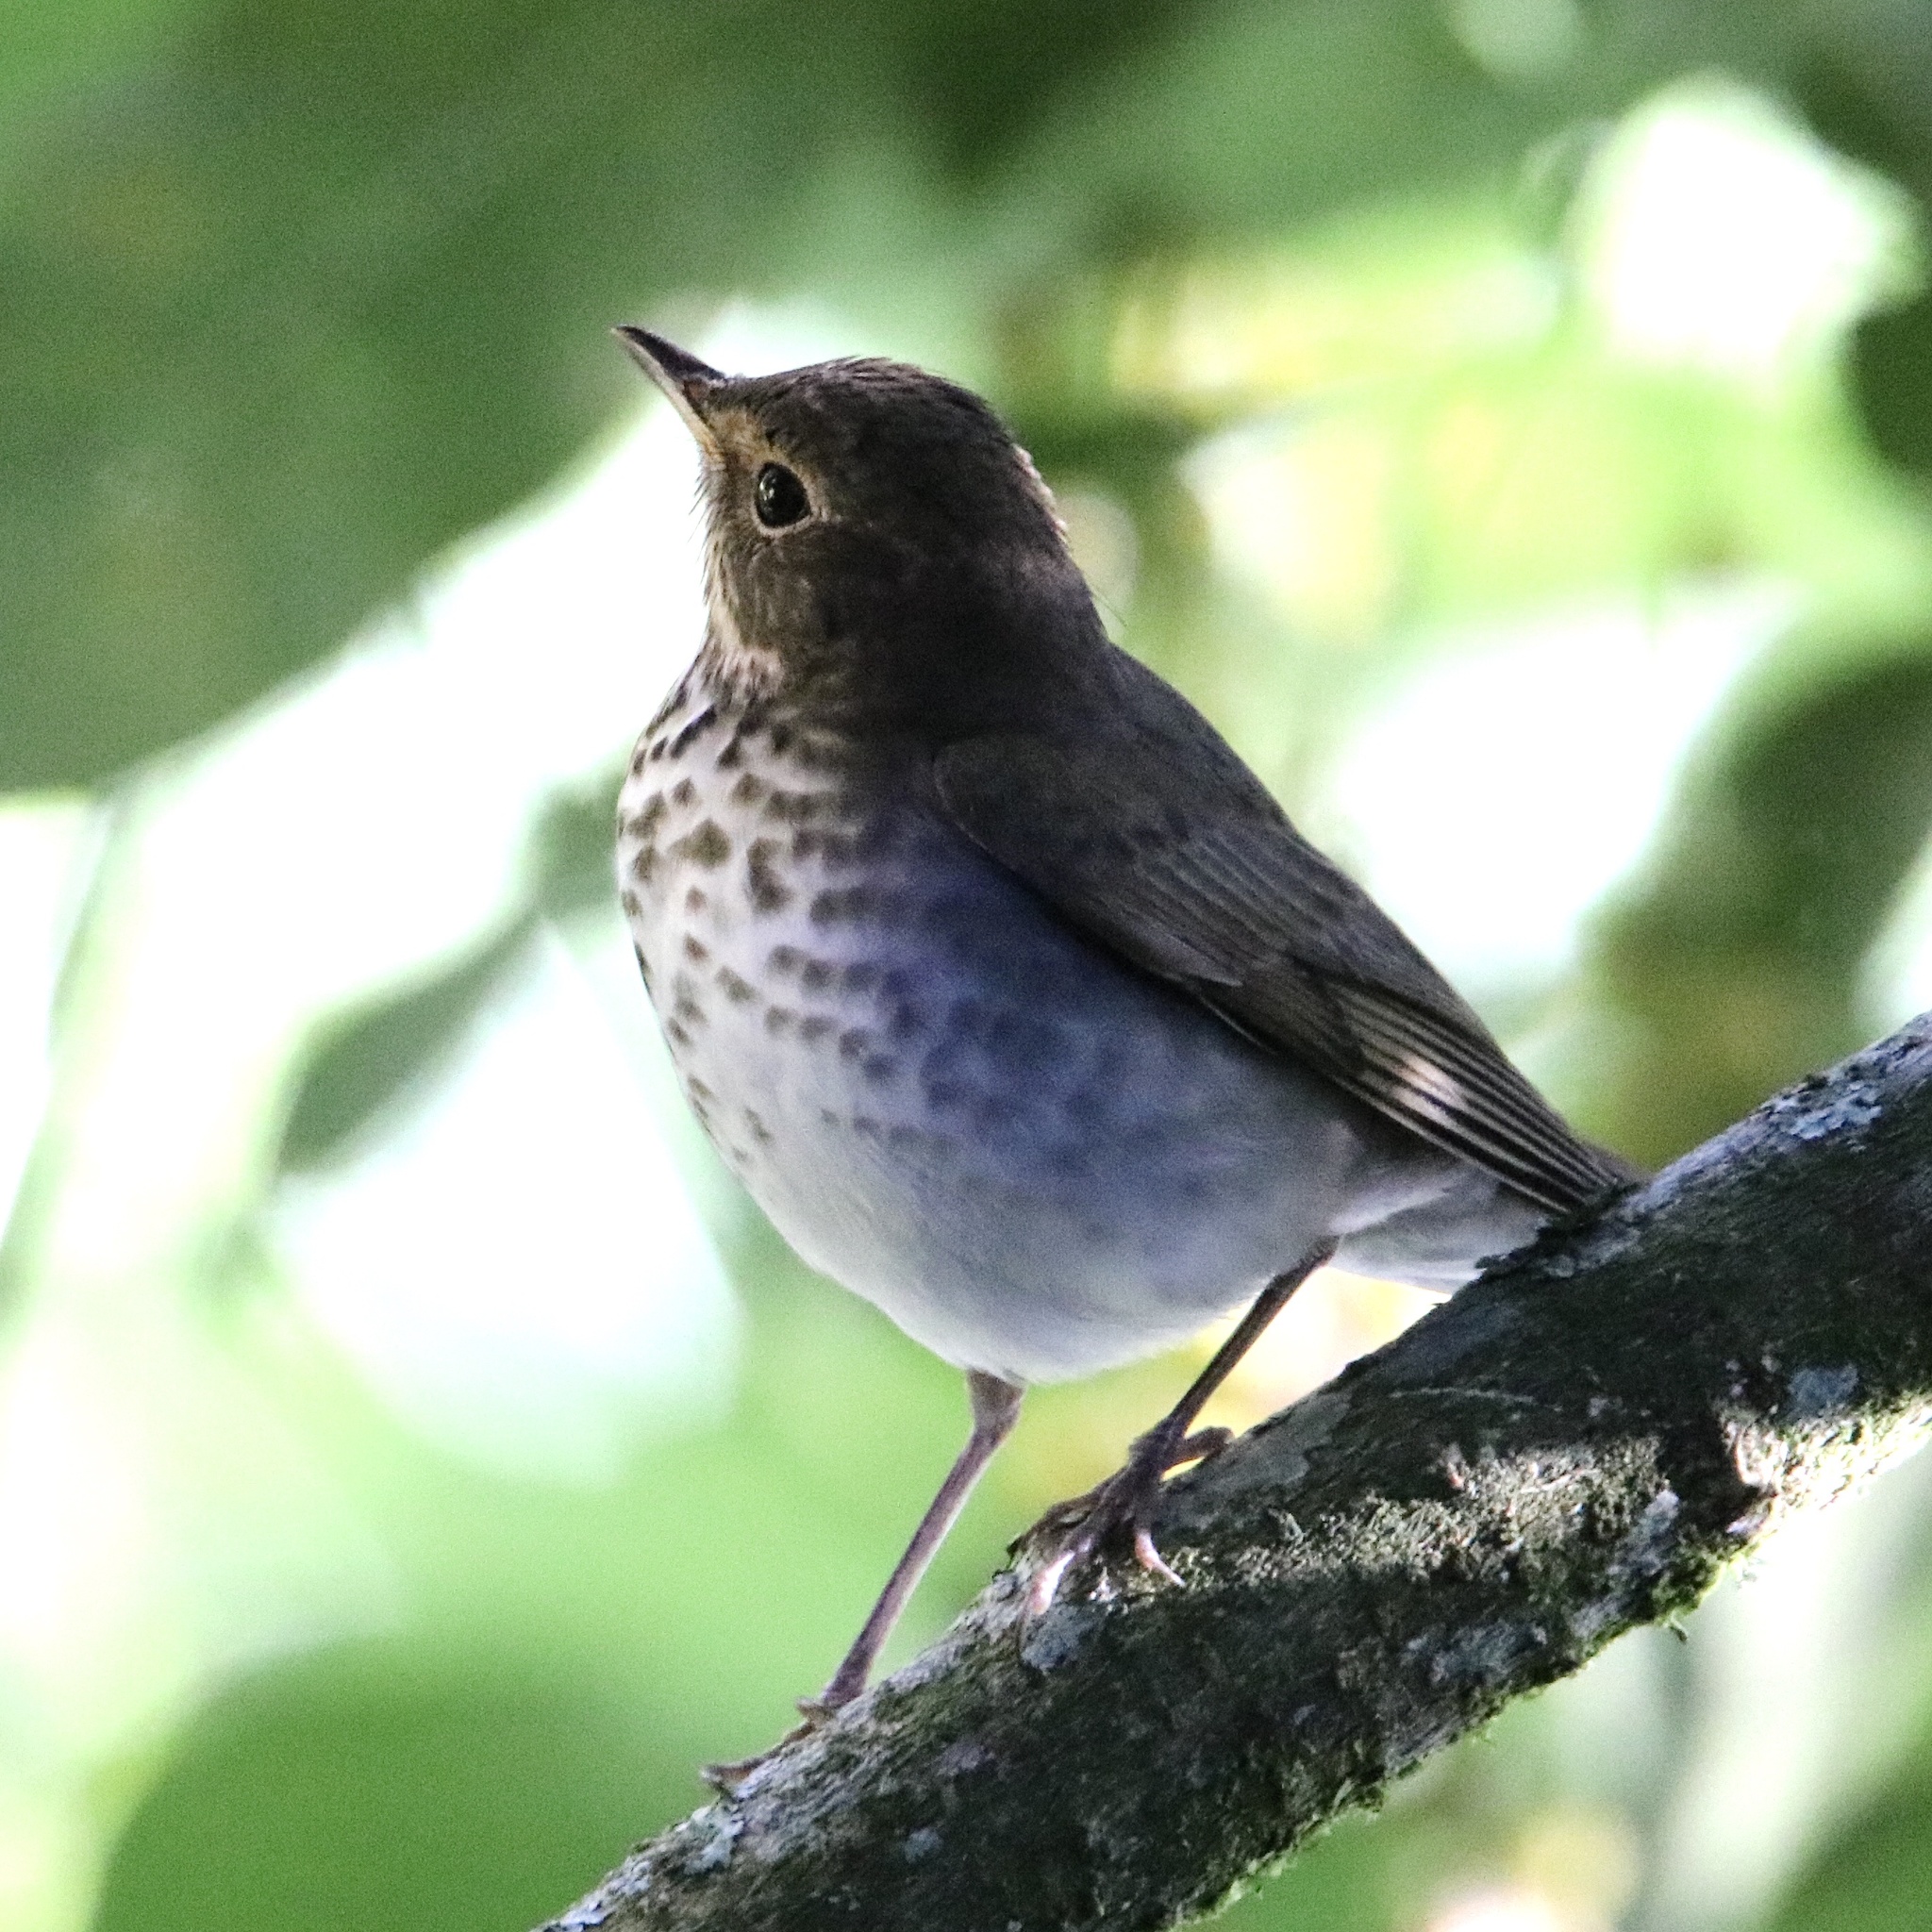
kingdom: Animalia
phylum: Chordata
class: Aves
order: Passeriformes
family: Turdidae
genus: Catharus
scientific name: Catharus ustulatus
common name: Swainson's thrush
